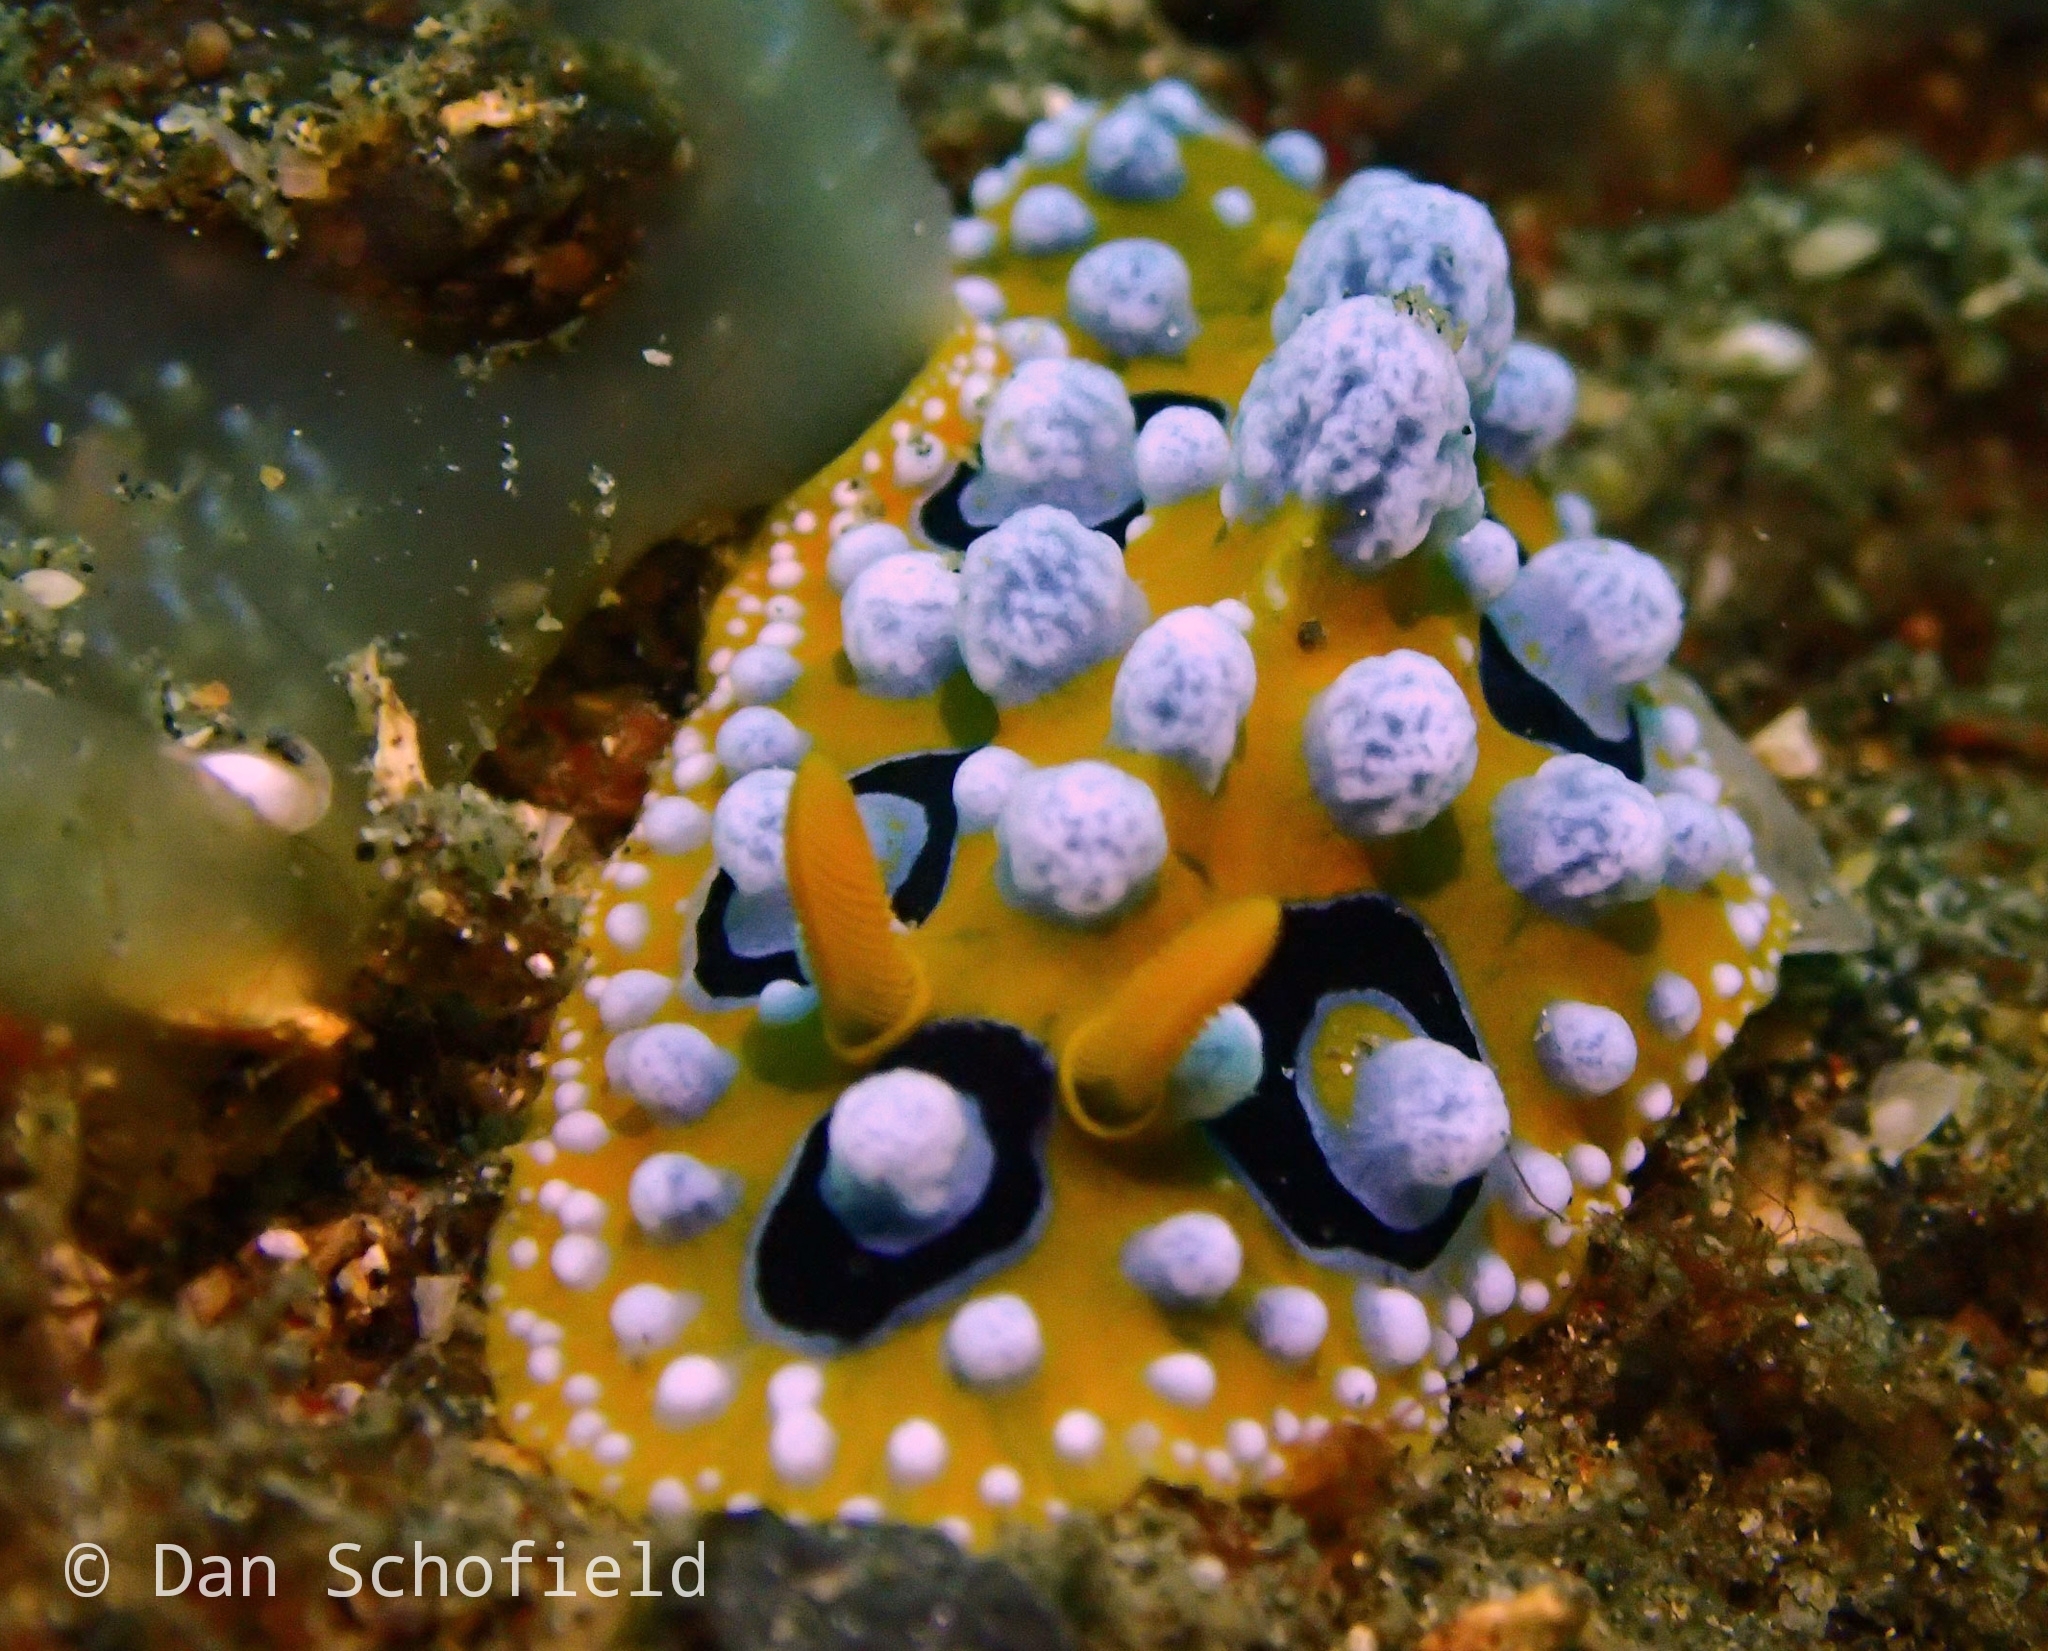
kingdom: Animalia
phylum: Mollusca
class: Gastropoda
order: Nudibranchia
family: Phyllidiidae
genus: Phyllidia
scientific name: Phyllidia ocellata
